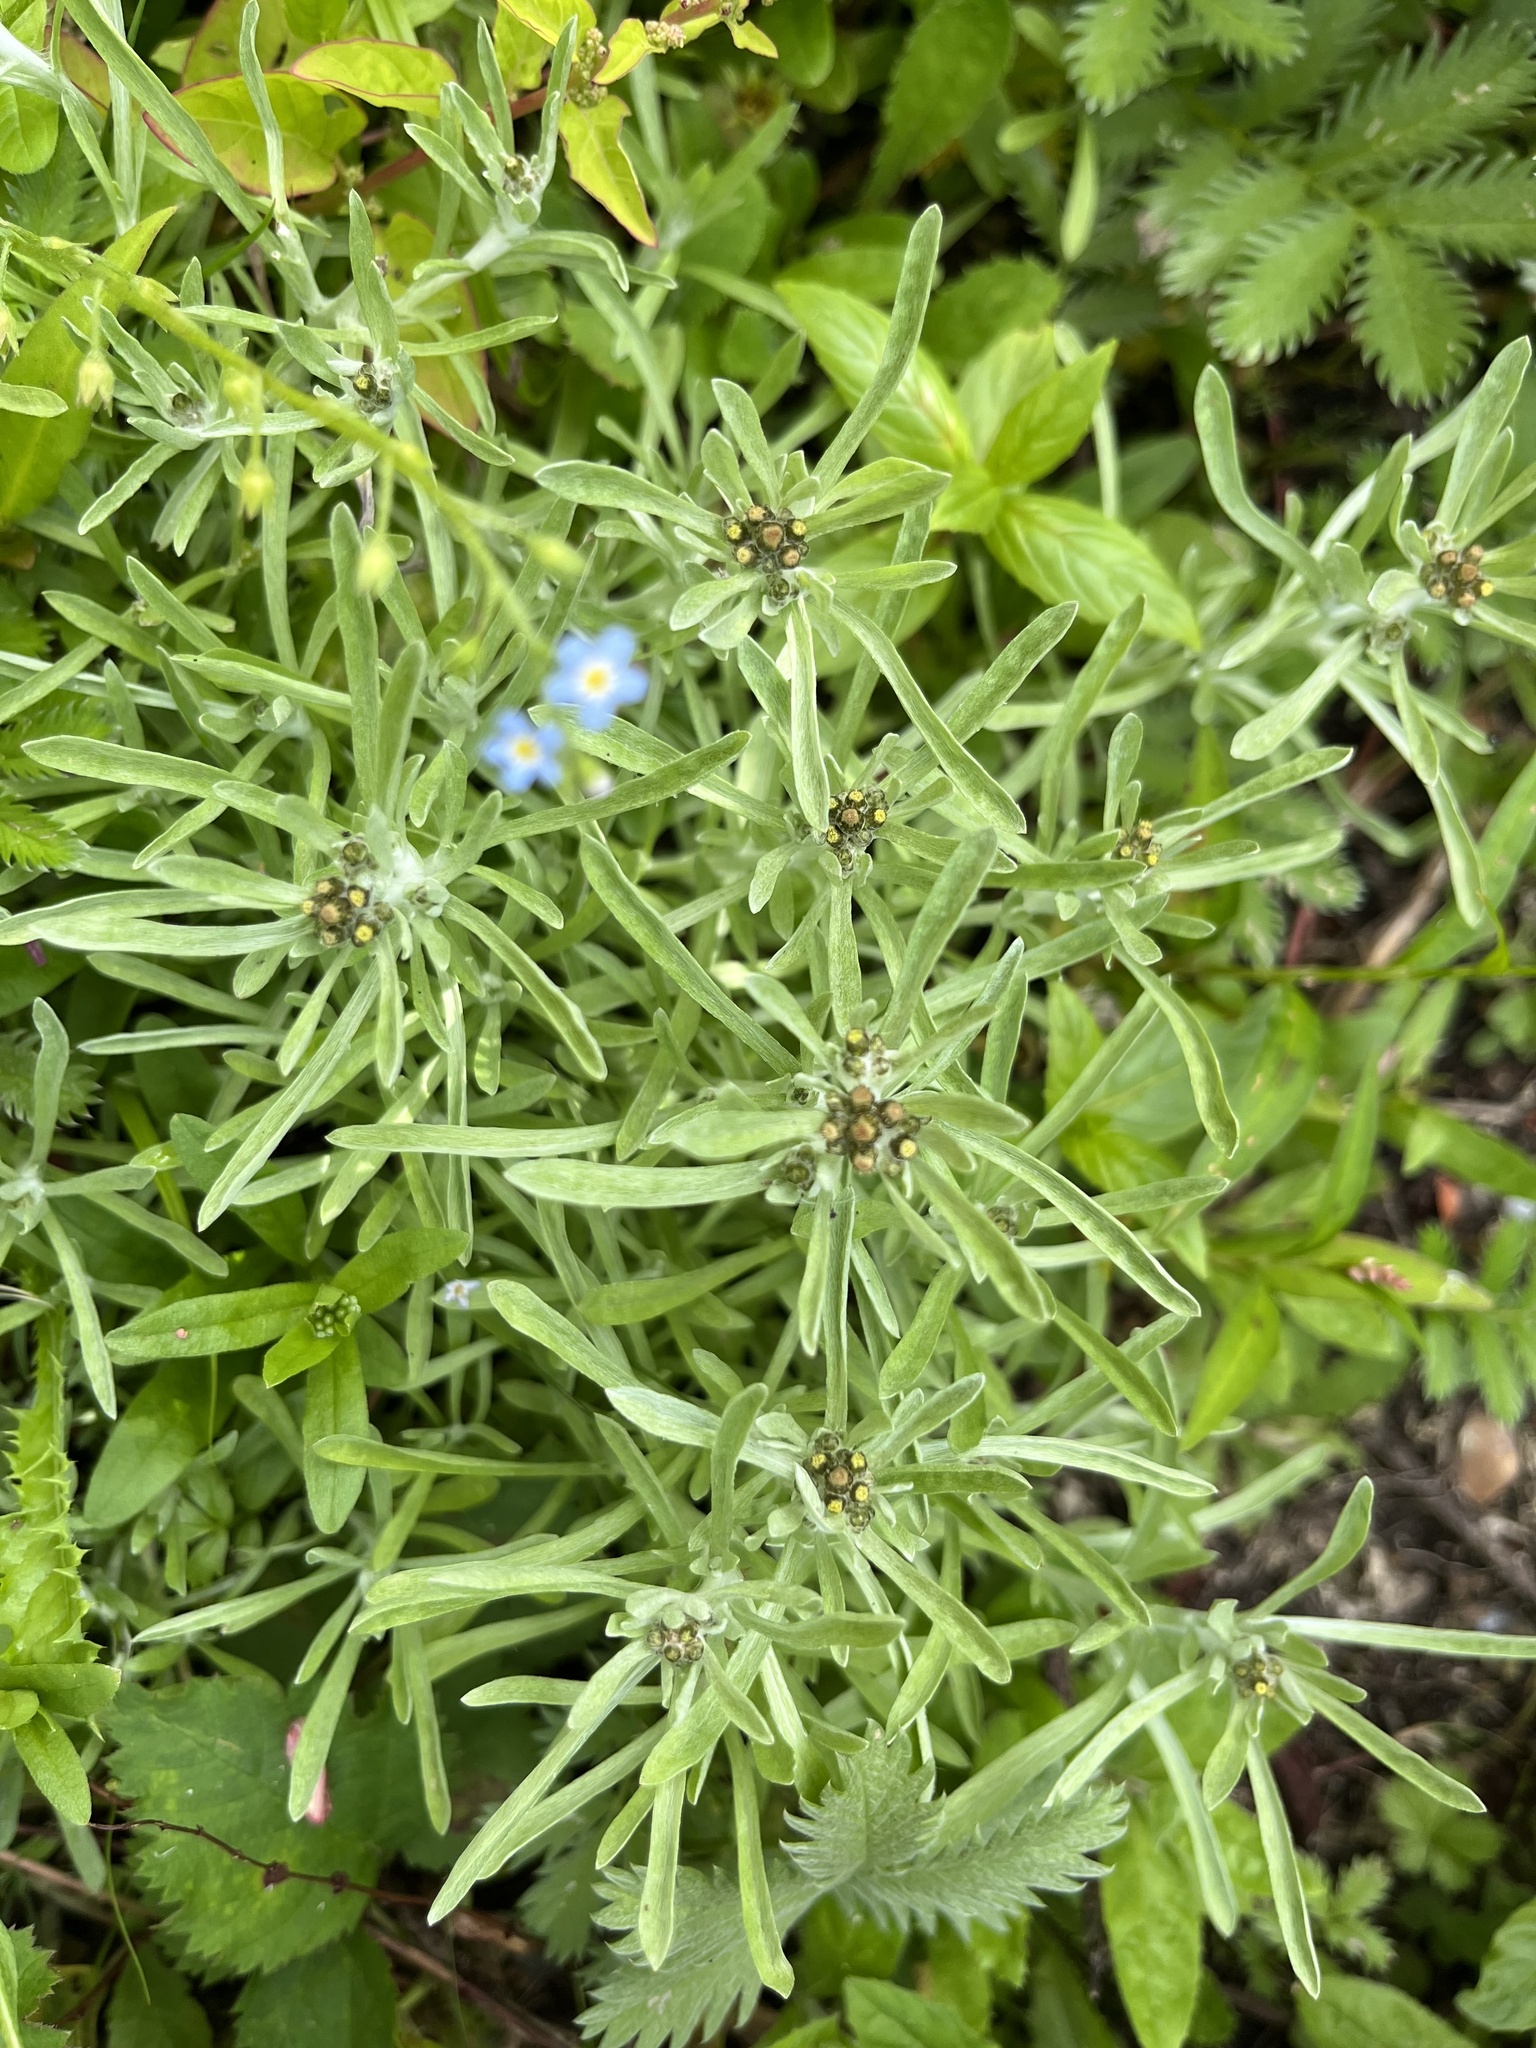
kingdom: Plantae
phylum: Tracheophyta
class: Magnoliopsida
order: Asterales
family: Asteraceae
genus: Gnaphalium
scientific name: Gnaphalium uliginosum
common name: Marsh cudweed
